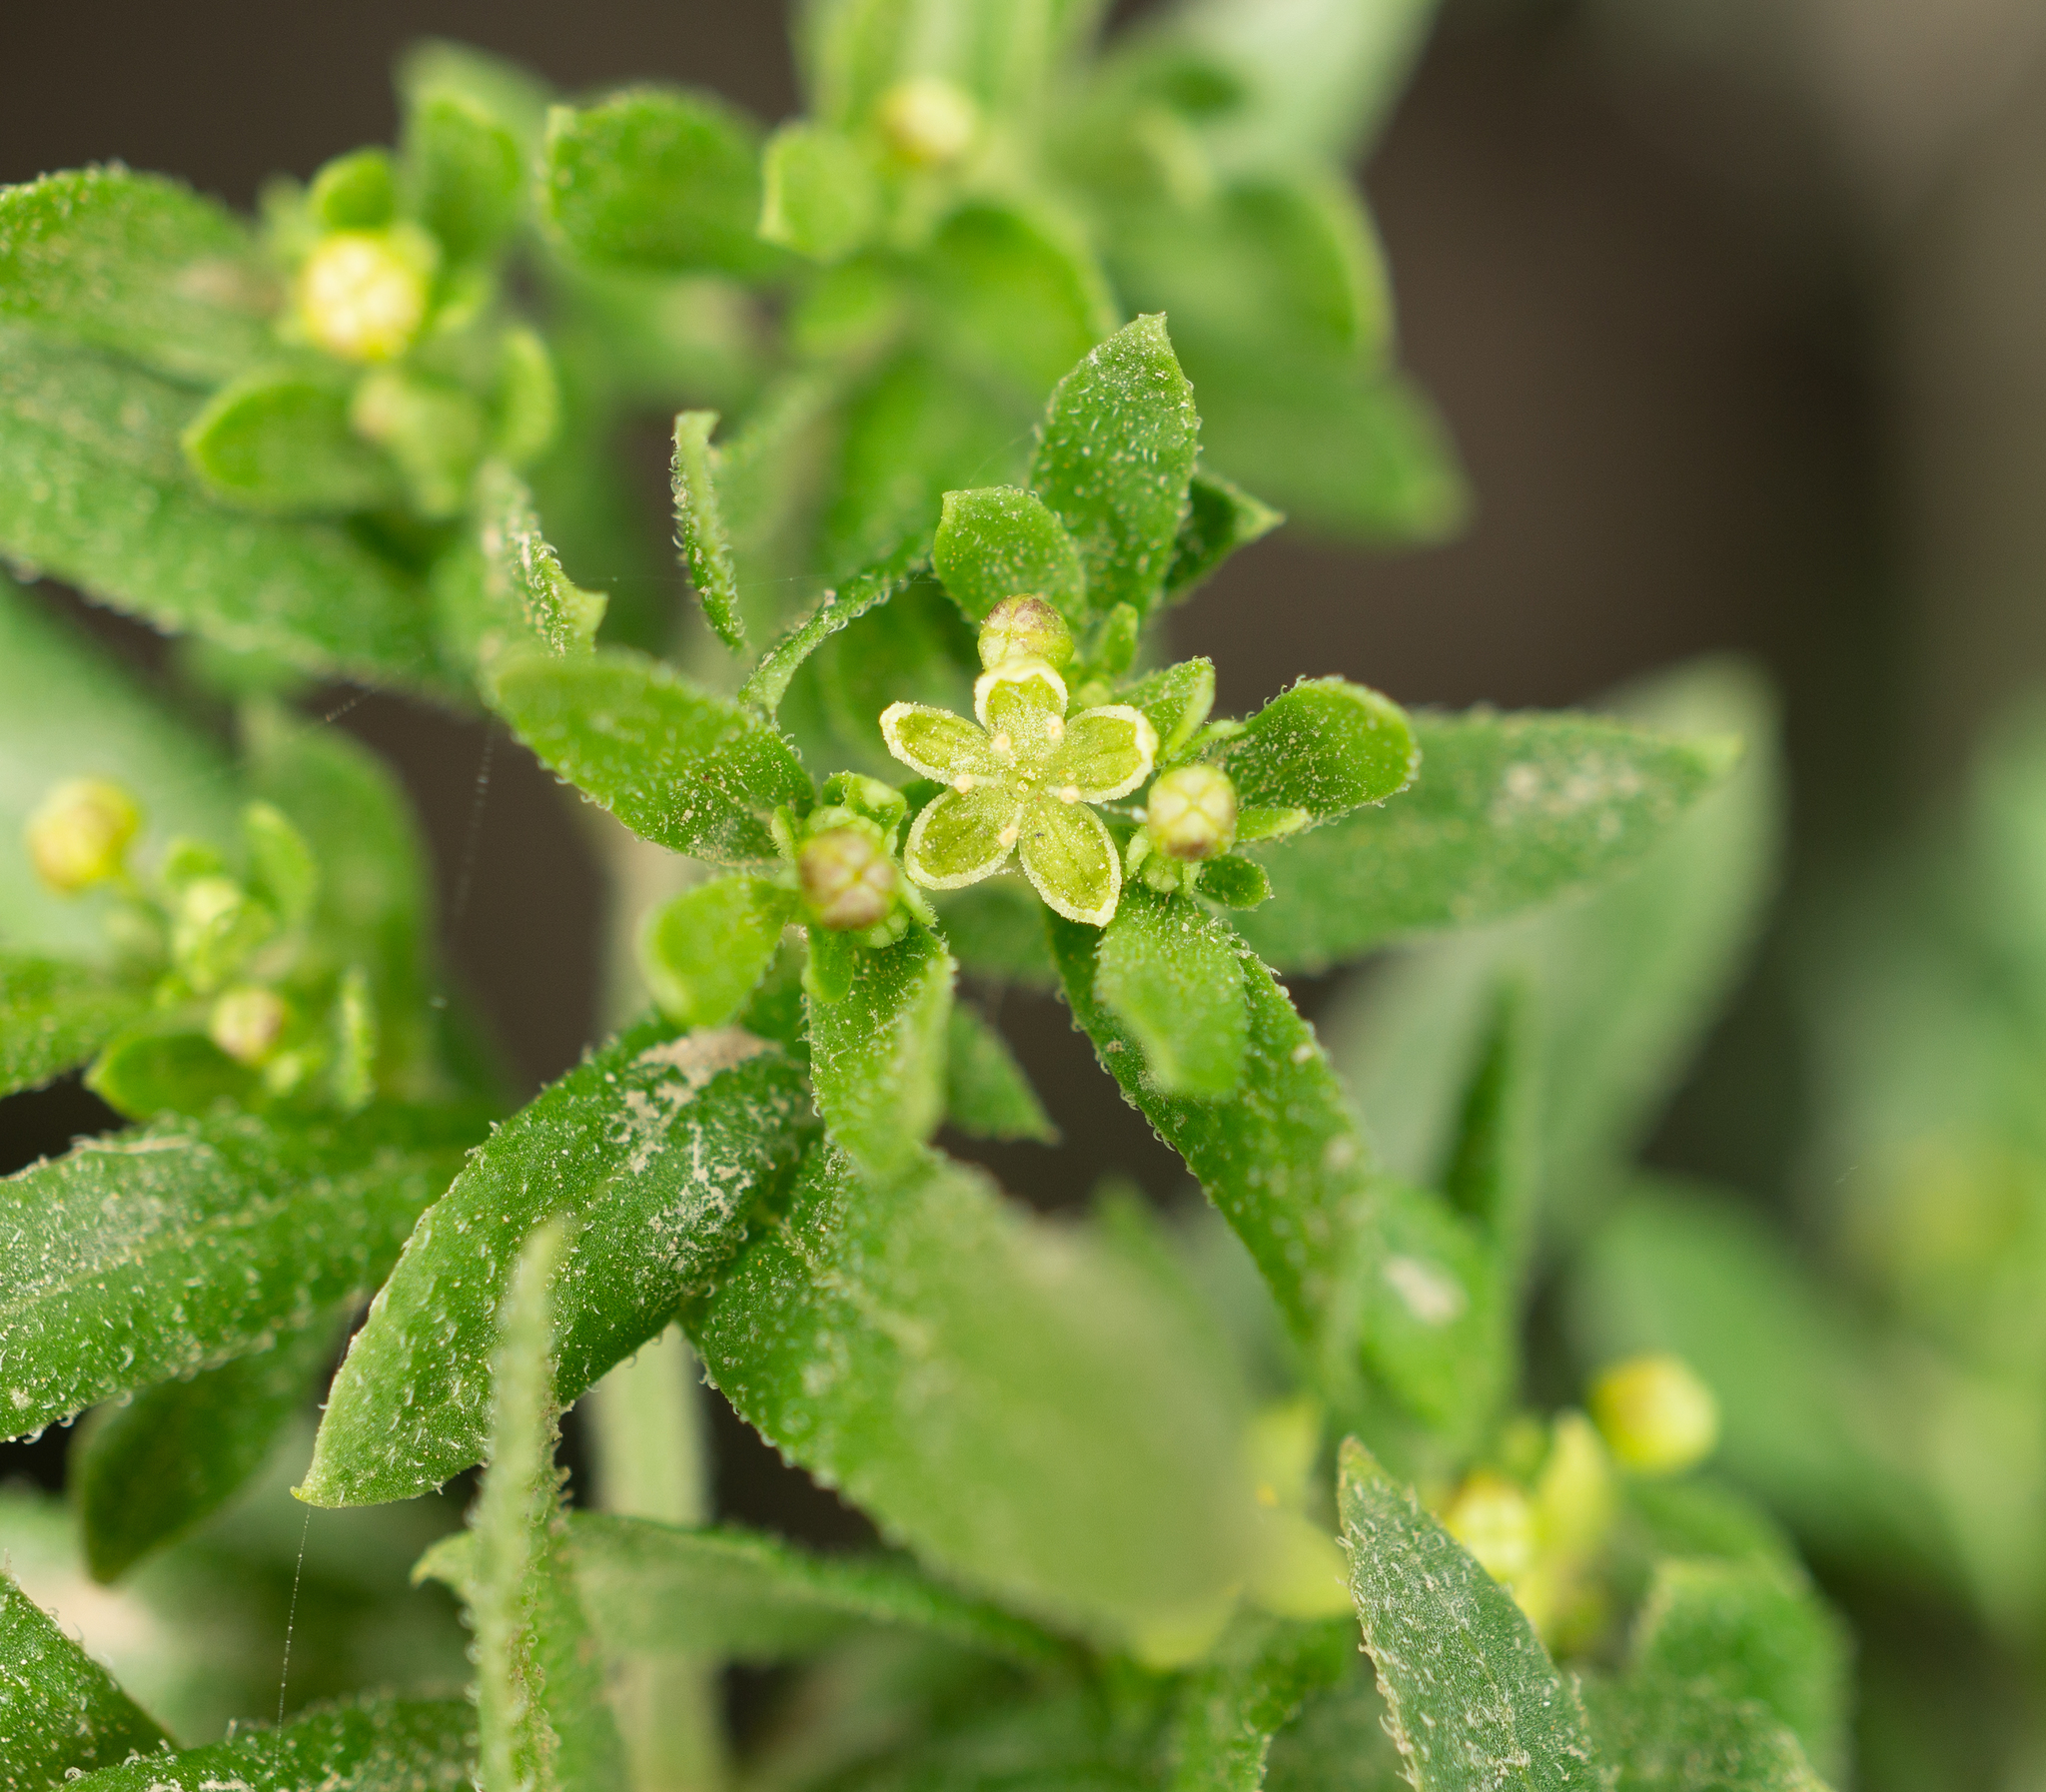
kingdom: Plantae
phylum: Tracheophyta
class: Magnoliopsida
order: Gentianales
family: Rubiaceae
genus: Galium
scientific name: Galium catalinense
